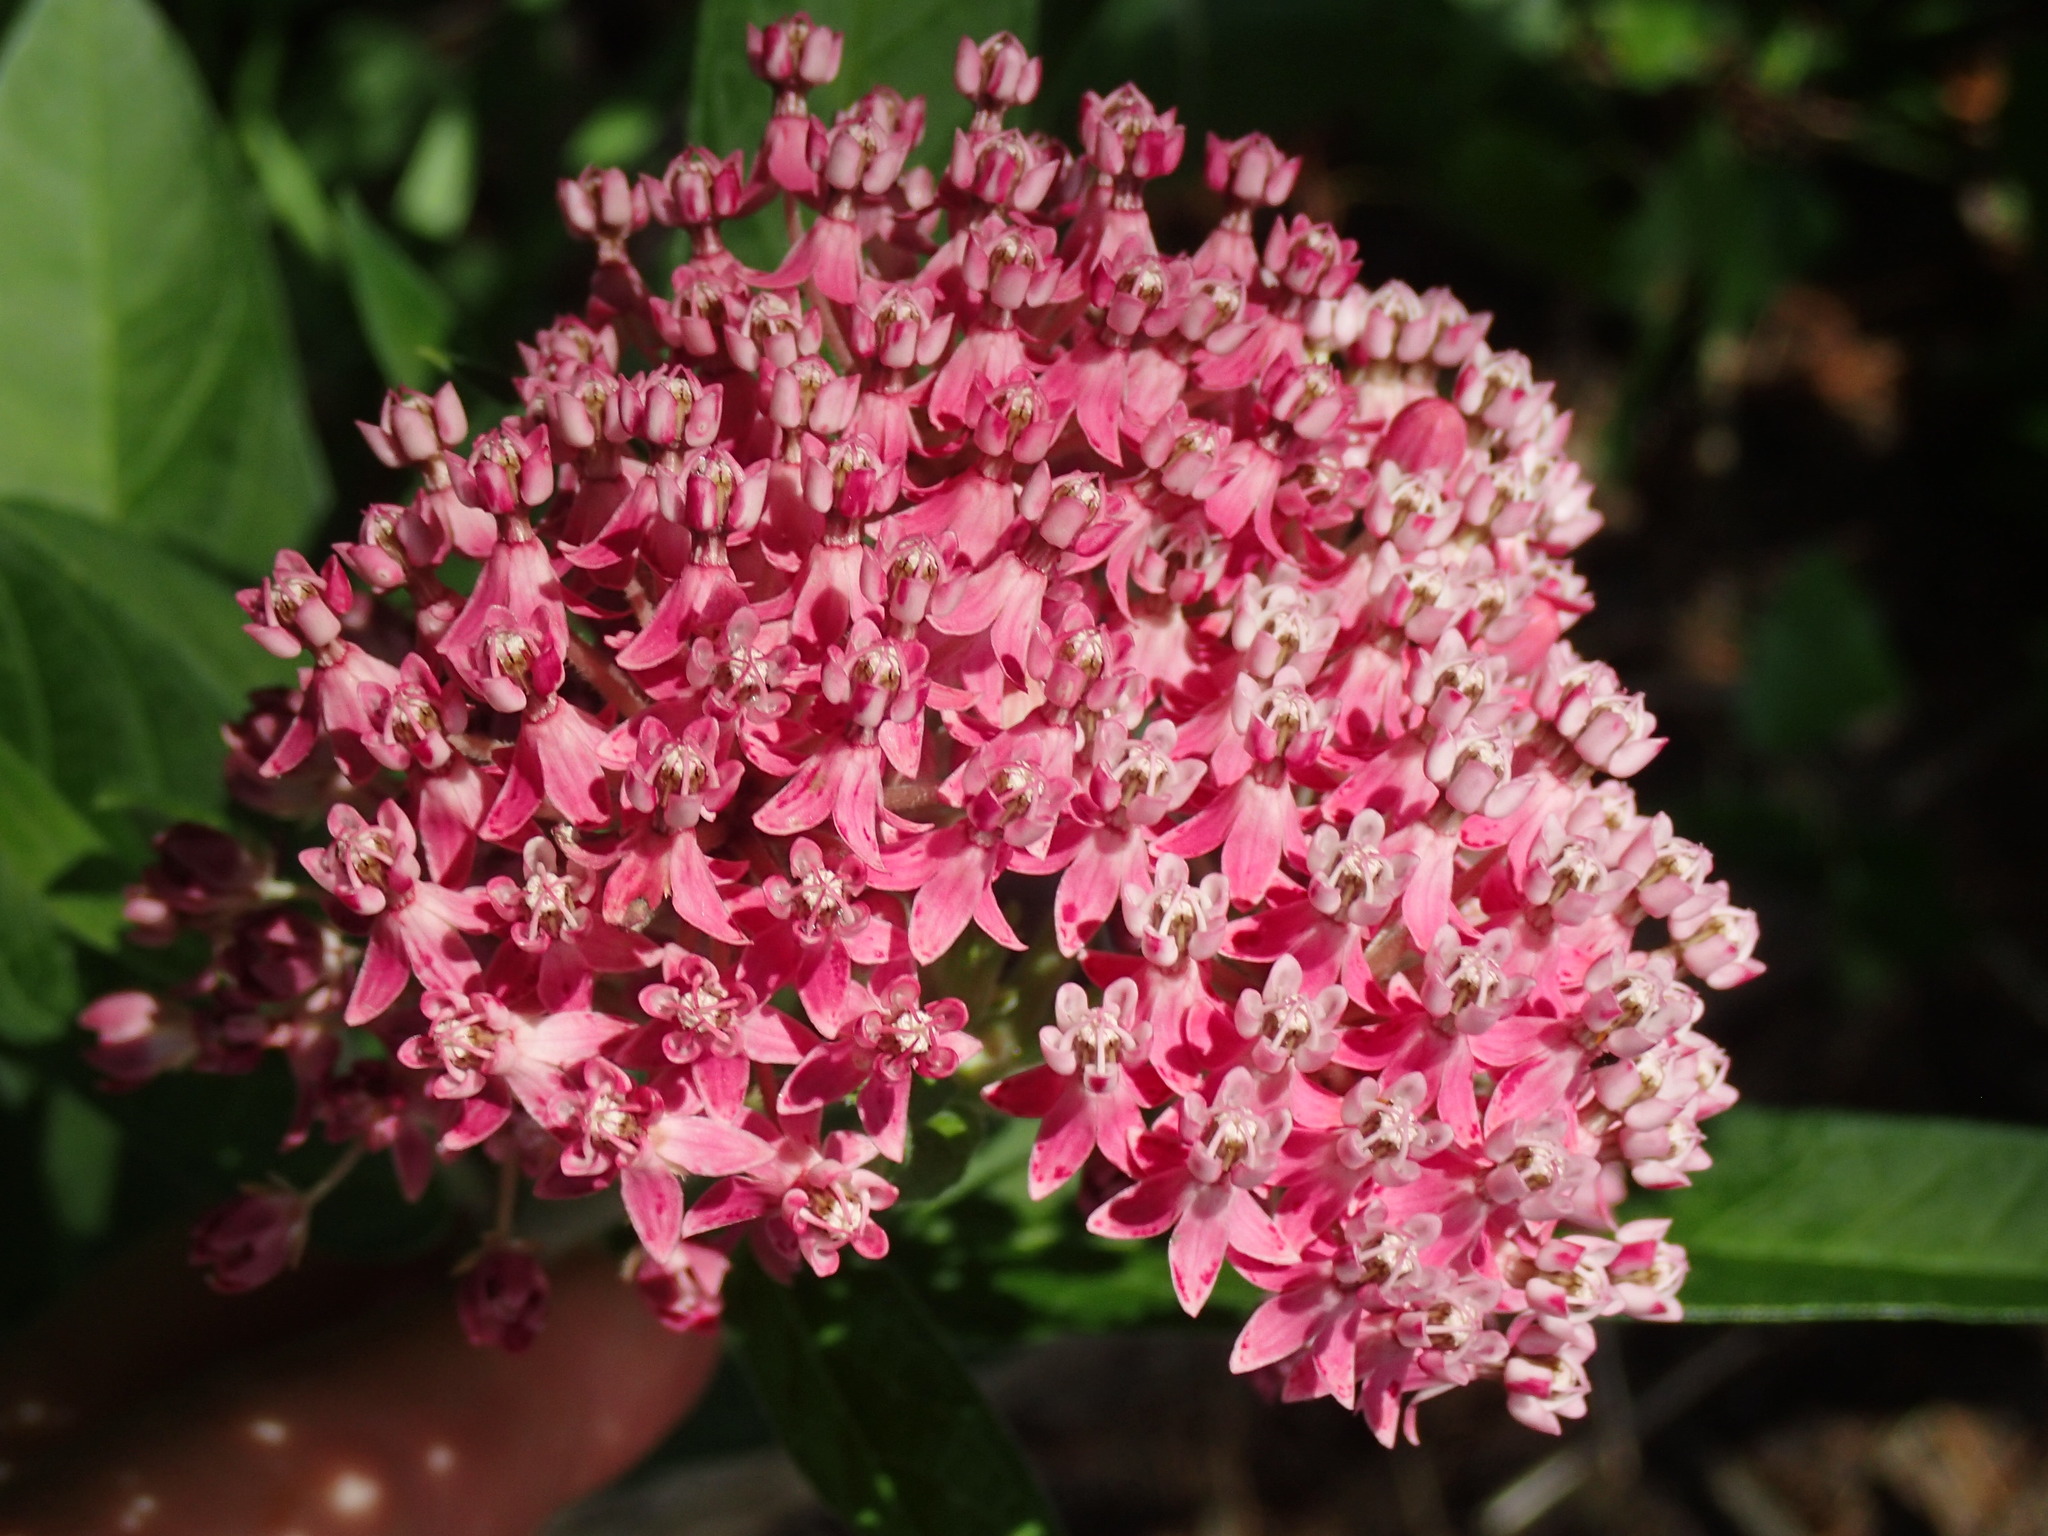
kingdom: Plantae
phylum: Tracheophyta
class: Magnoliopsida
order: Gentianales
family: Apocynaceae
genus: Asclepias
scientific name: Asclepias incarnata
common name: Swamp milkweed
